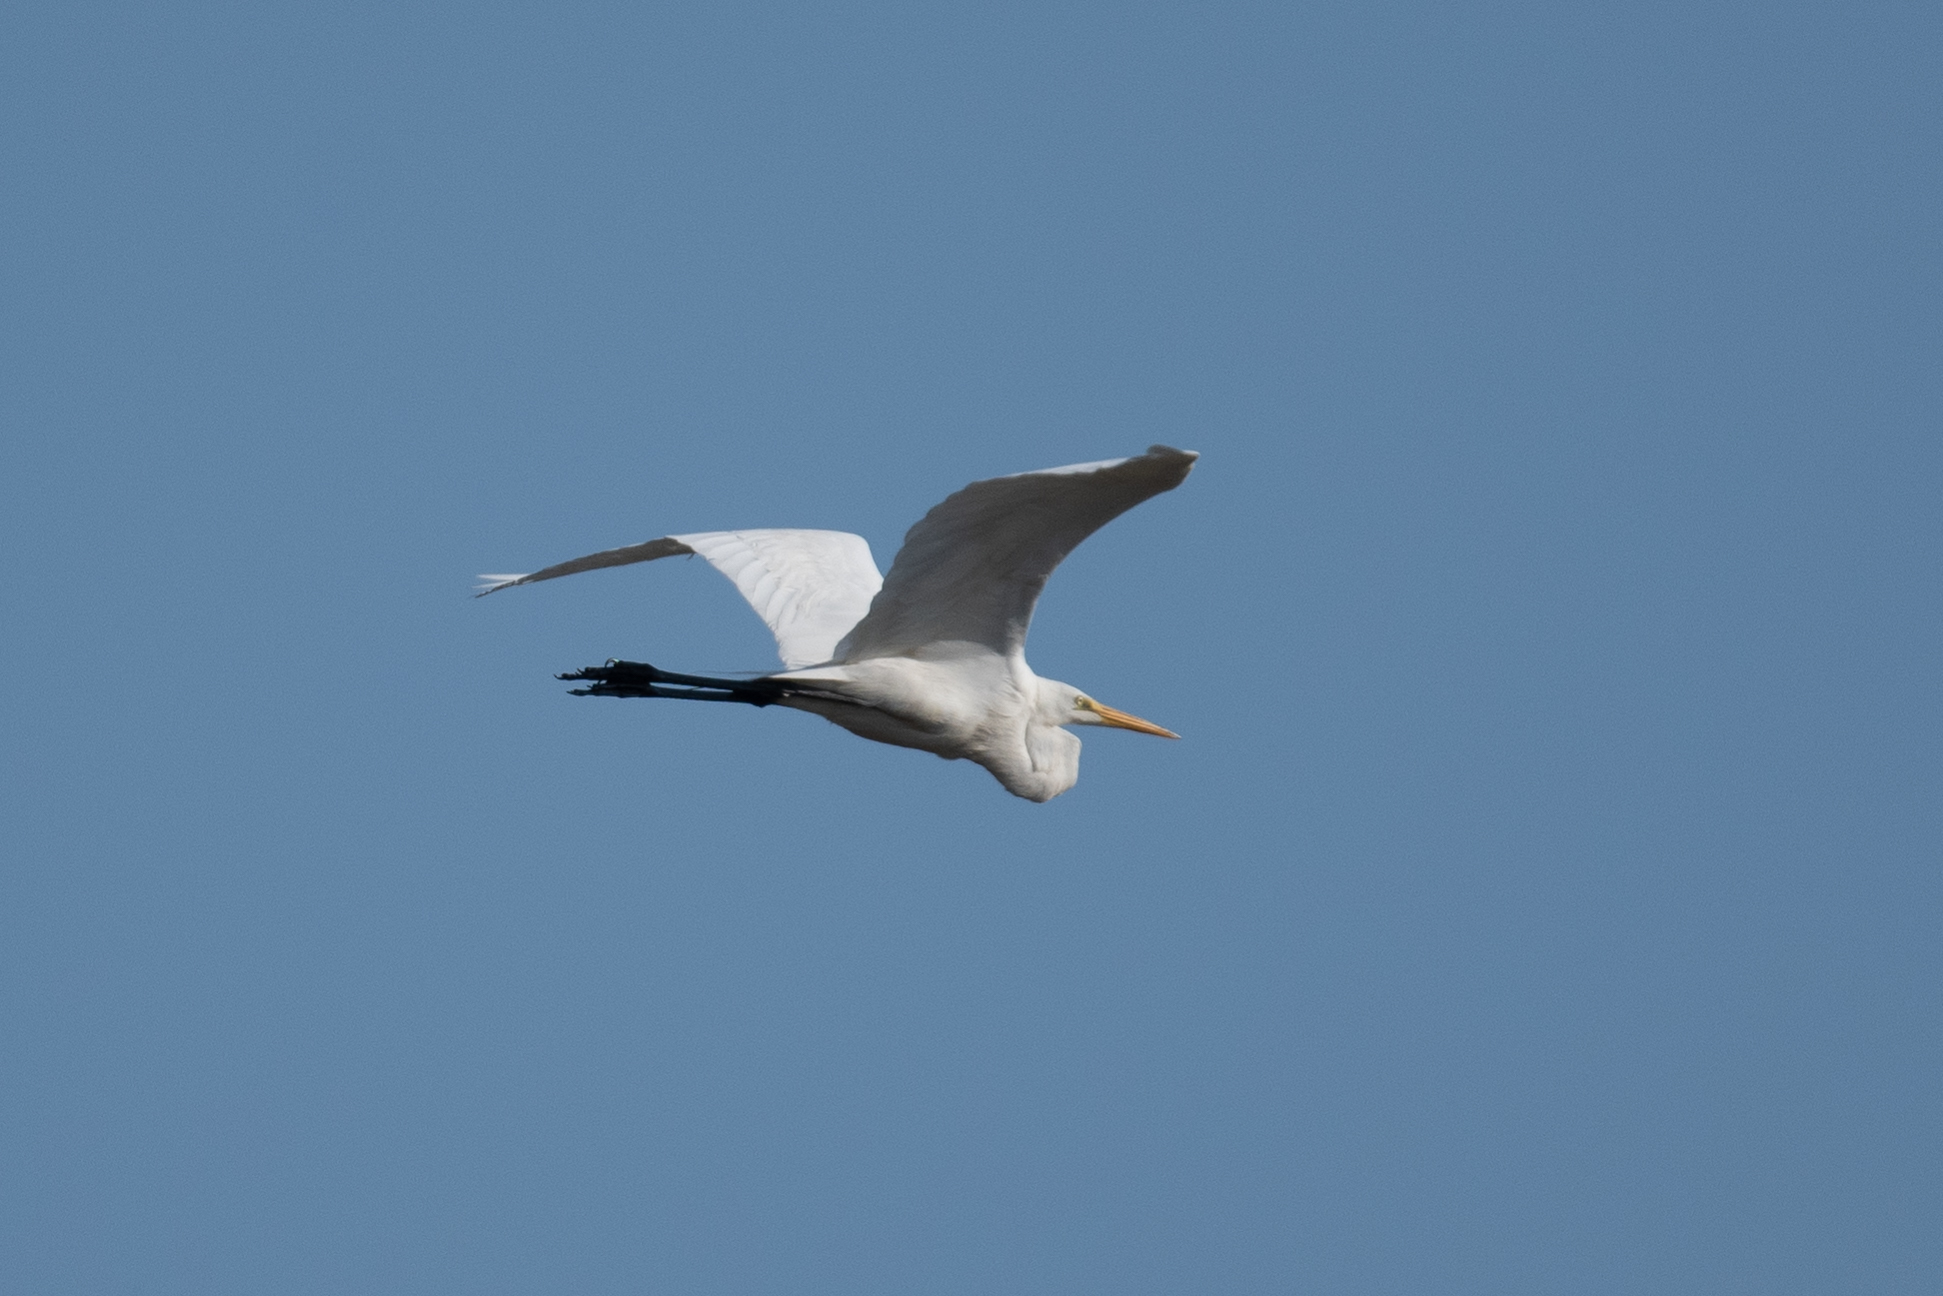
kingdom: Animalia
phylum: Chordata
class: Aves
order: Pelecaniformes
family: Ardeidae
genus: Ardea
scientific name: Ardea alba
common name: Great egret
